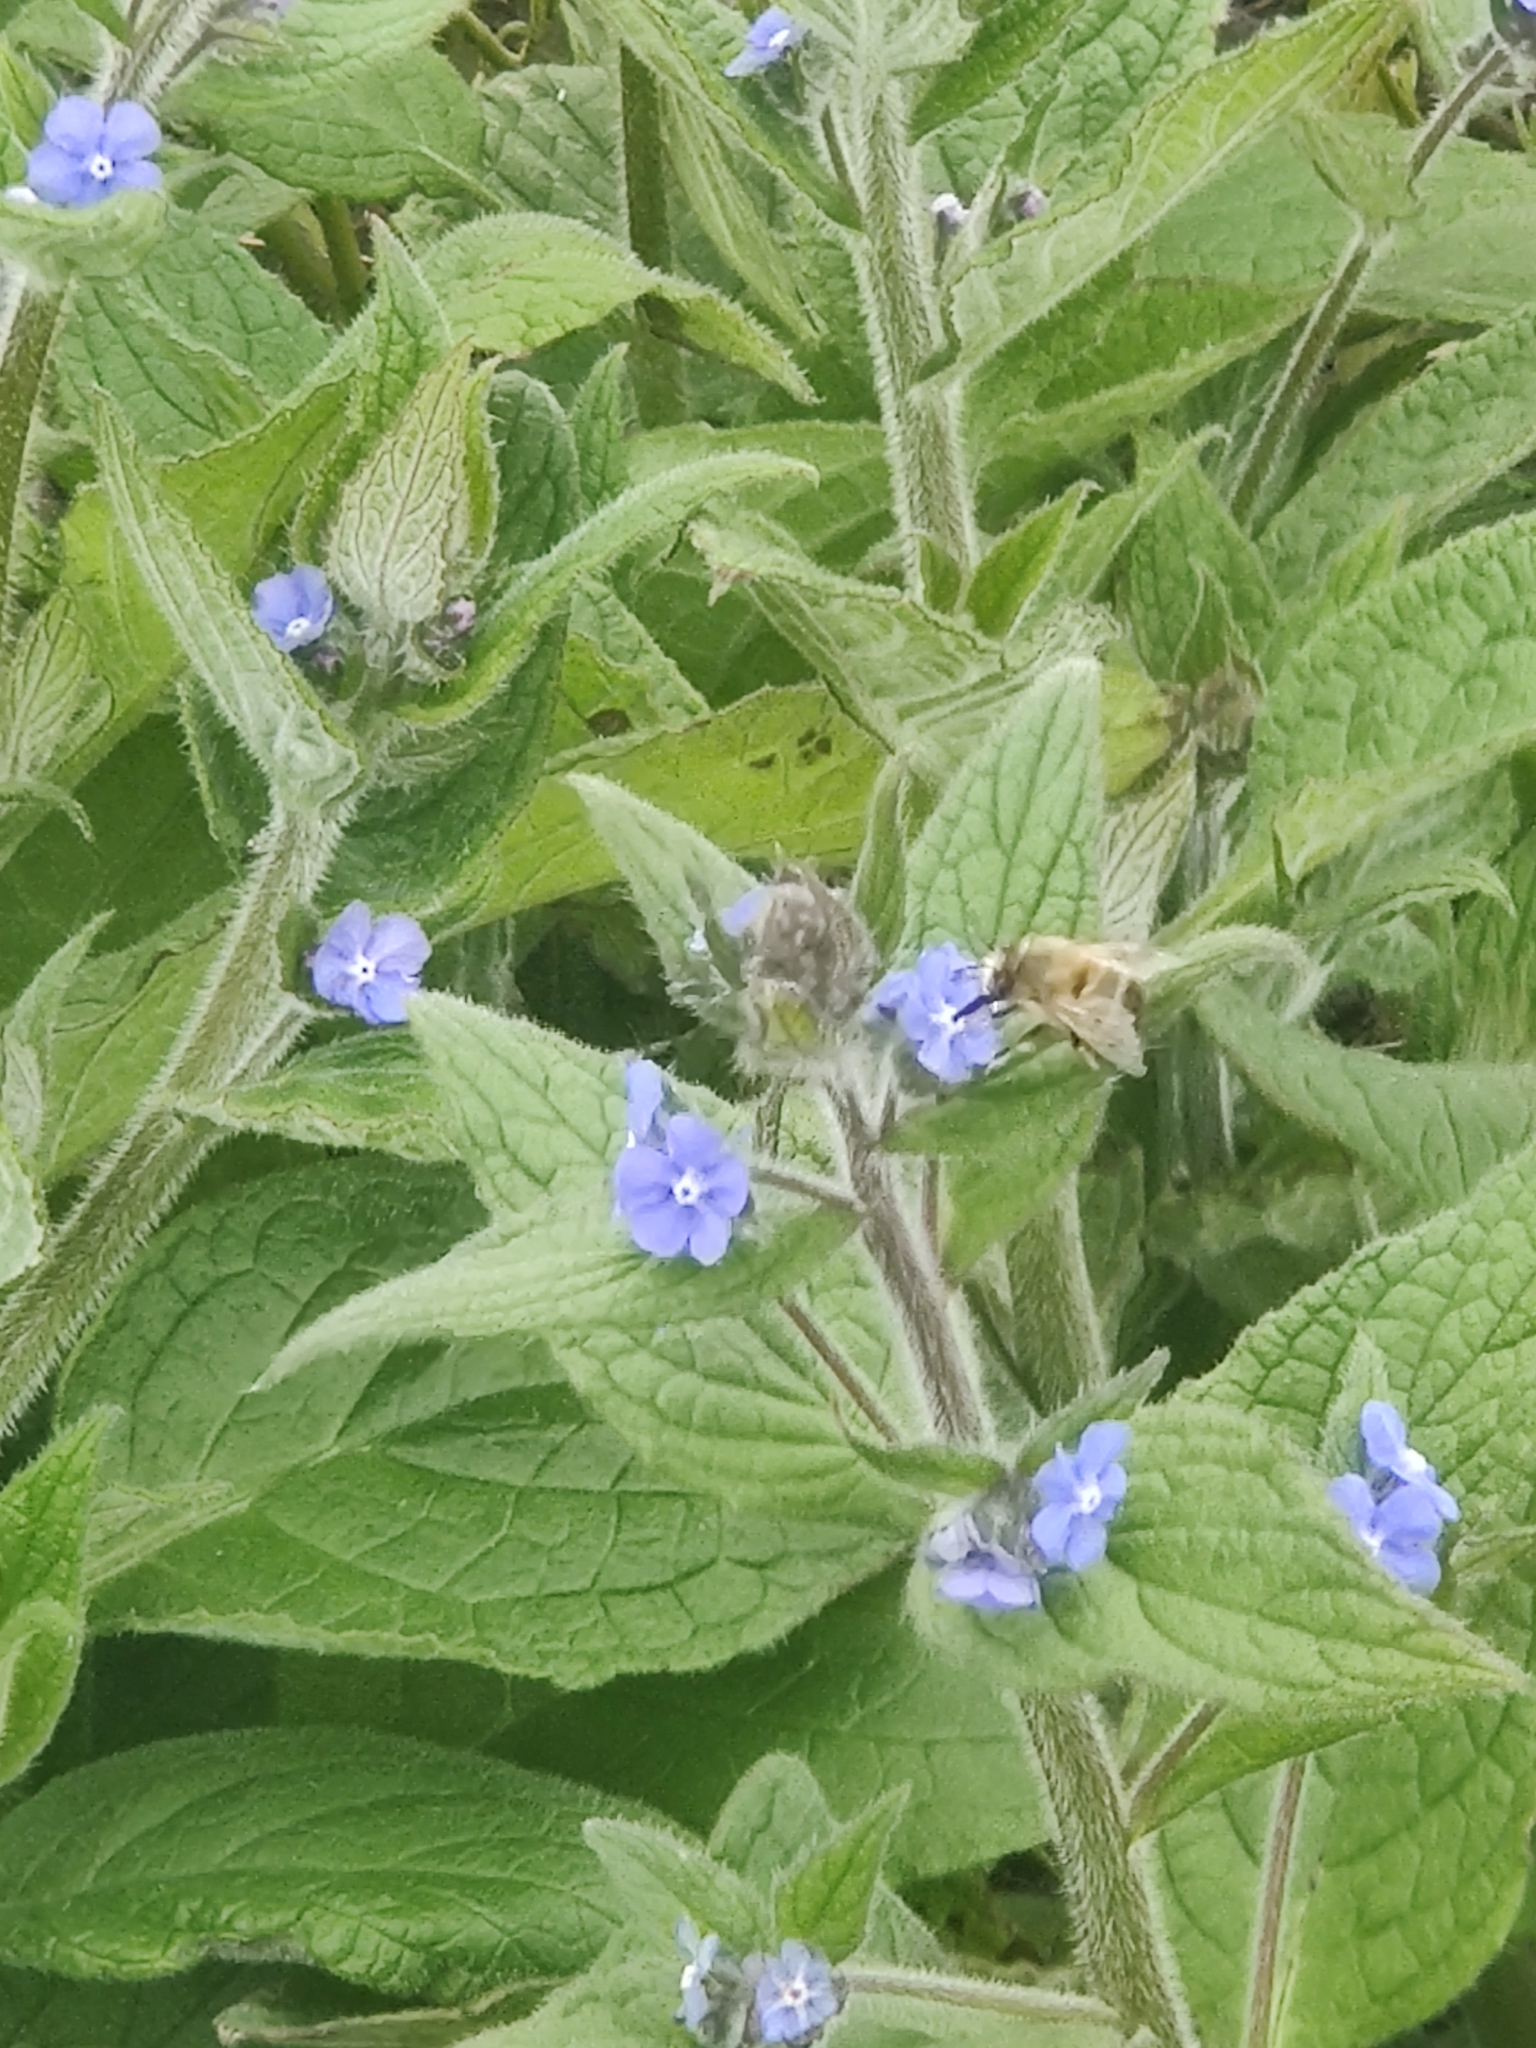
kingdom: Animalia
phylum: Arthropoda
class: Insecta
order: Hymenoptera
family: Apidae
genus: Anthophora
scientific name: Anthophora plumipes
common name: Hairy-footed flower bee
